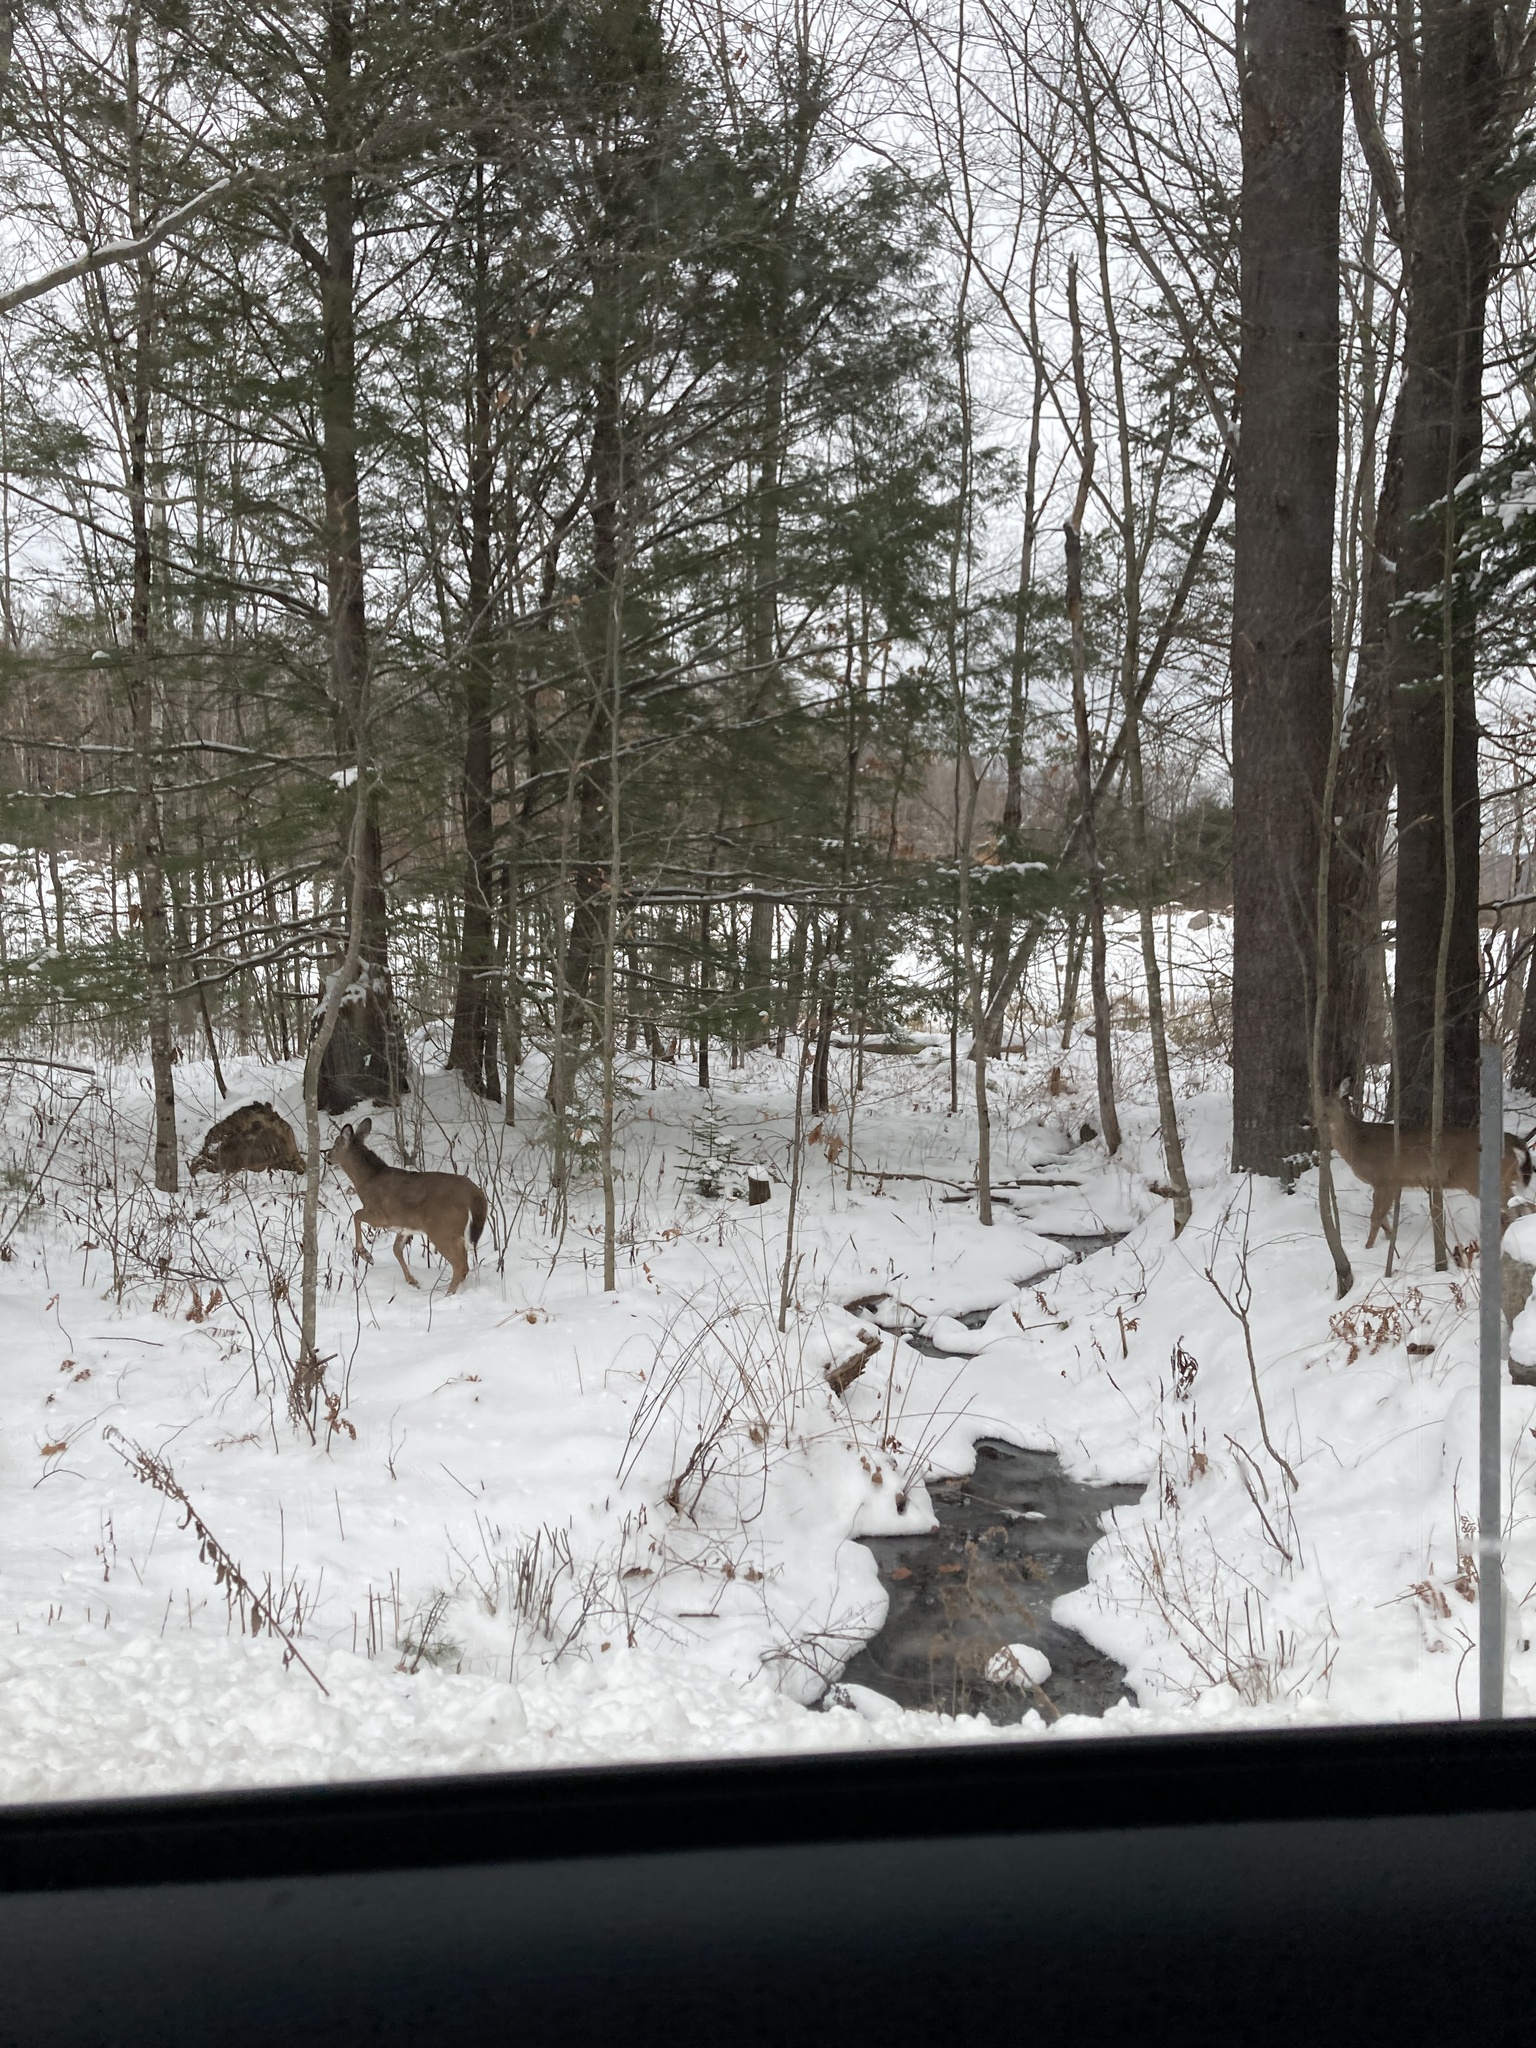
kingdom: Animalia
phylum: Chordata
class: Mammalia
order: Artiodactyla
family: Cervidae
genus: Odocoileus
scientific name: Odocoileus virginianus
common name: White-tailed deer
